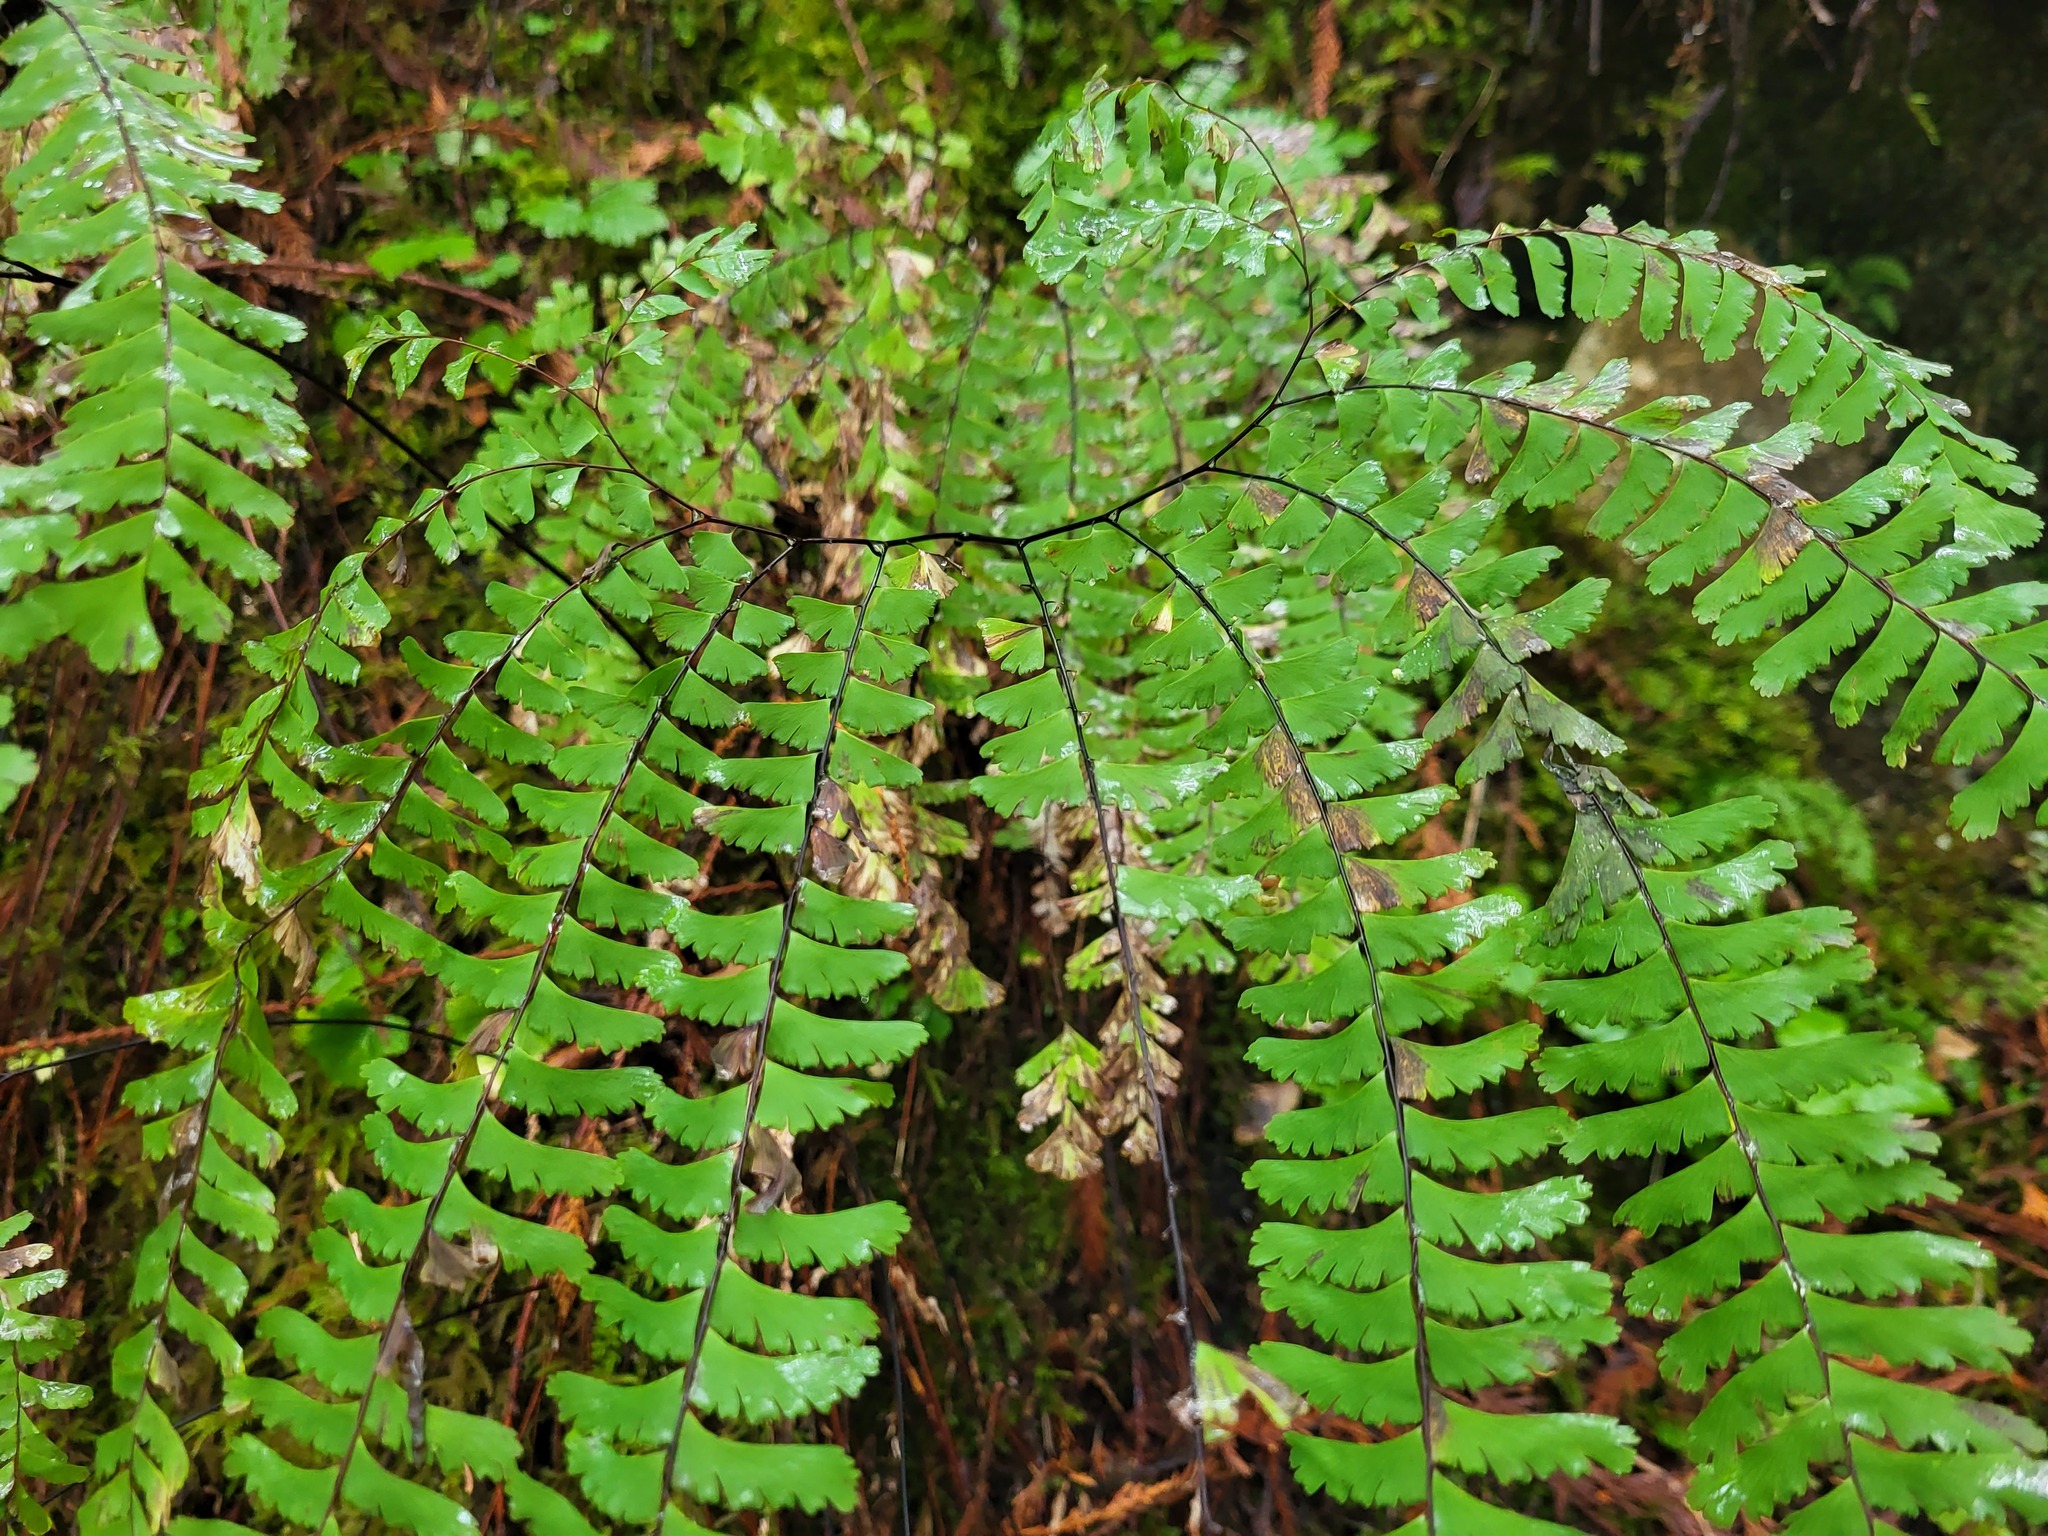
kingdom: Plantae
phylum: Tracheophyta
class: Polypodiopsida
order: Polypodiales
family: Pteridaceae
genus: Adiantum
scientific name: Adiantum aleuticum
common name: Aleutian maidenhair fern
